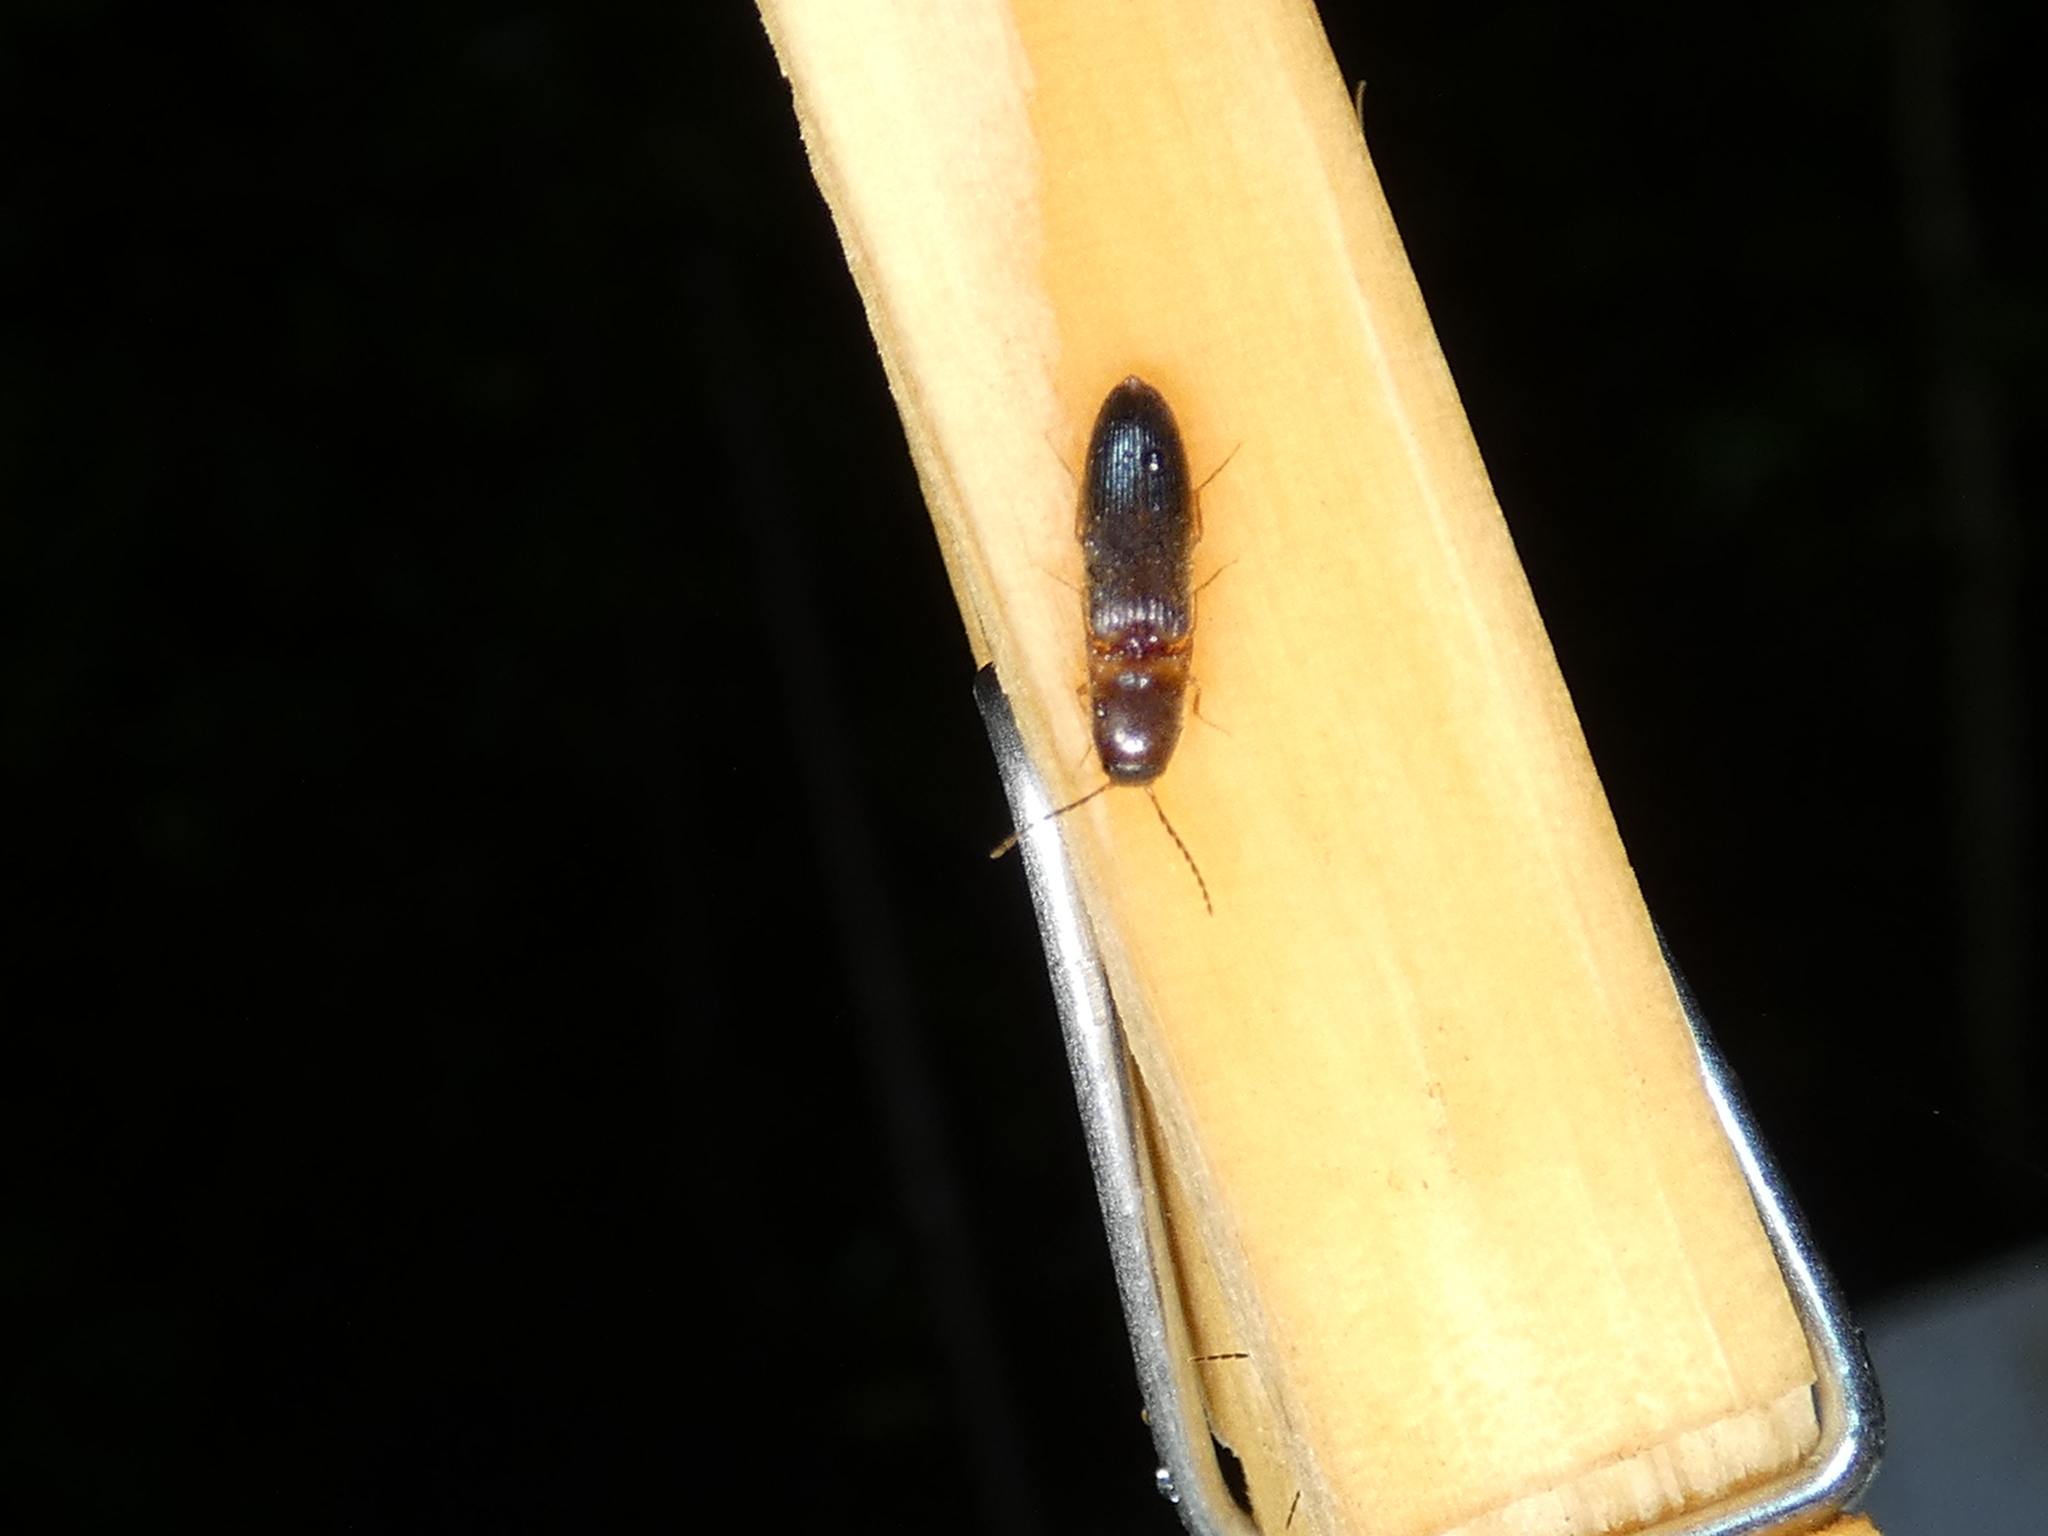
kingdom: Animalia
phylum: Arthropoda
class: Insecta
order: Coleoptera
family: Elateridae
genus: Megapenthes
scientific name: Megapenthes
